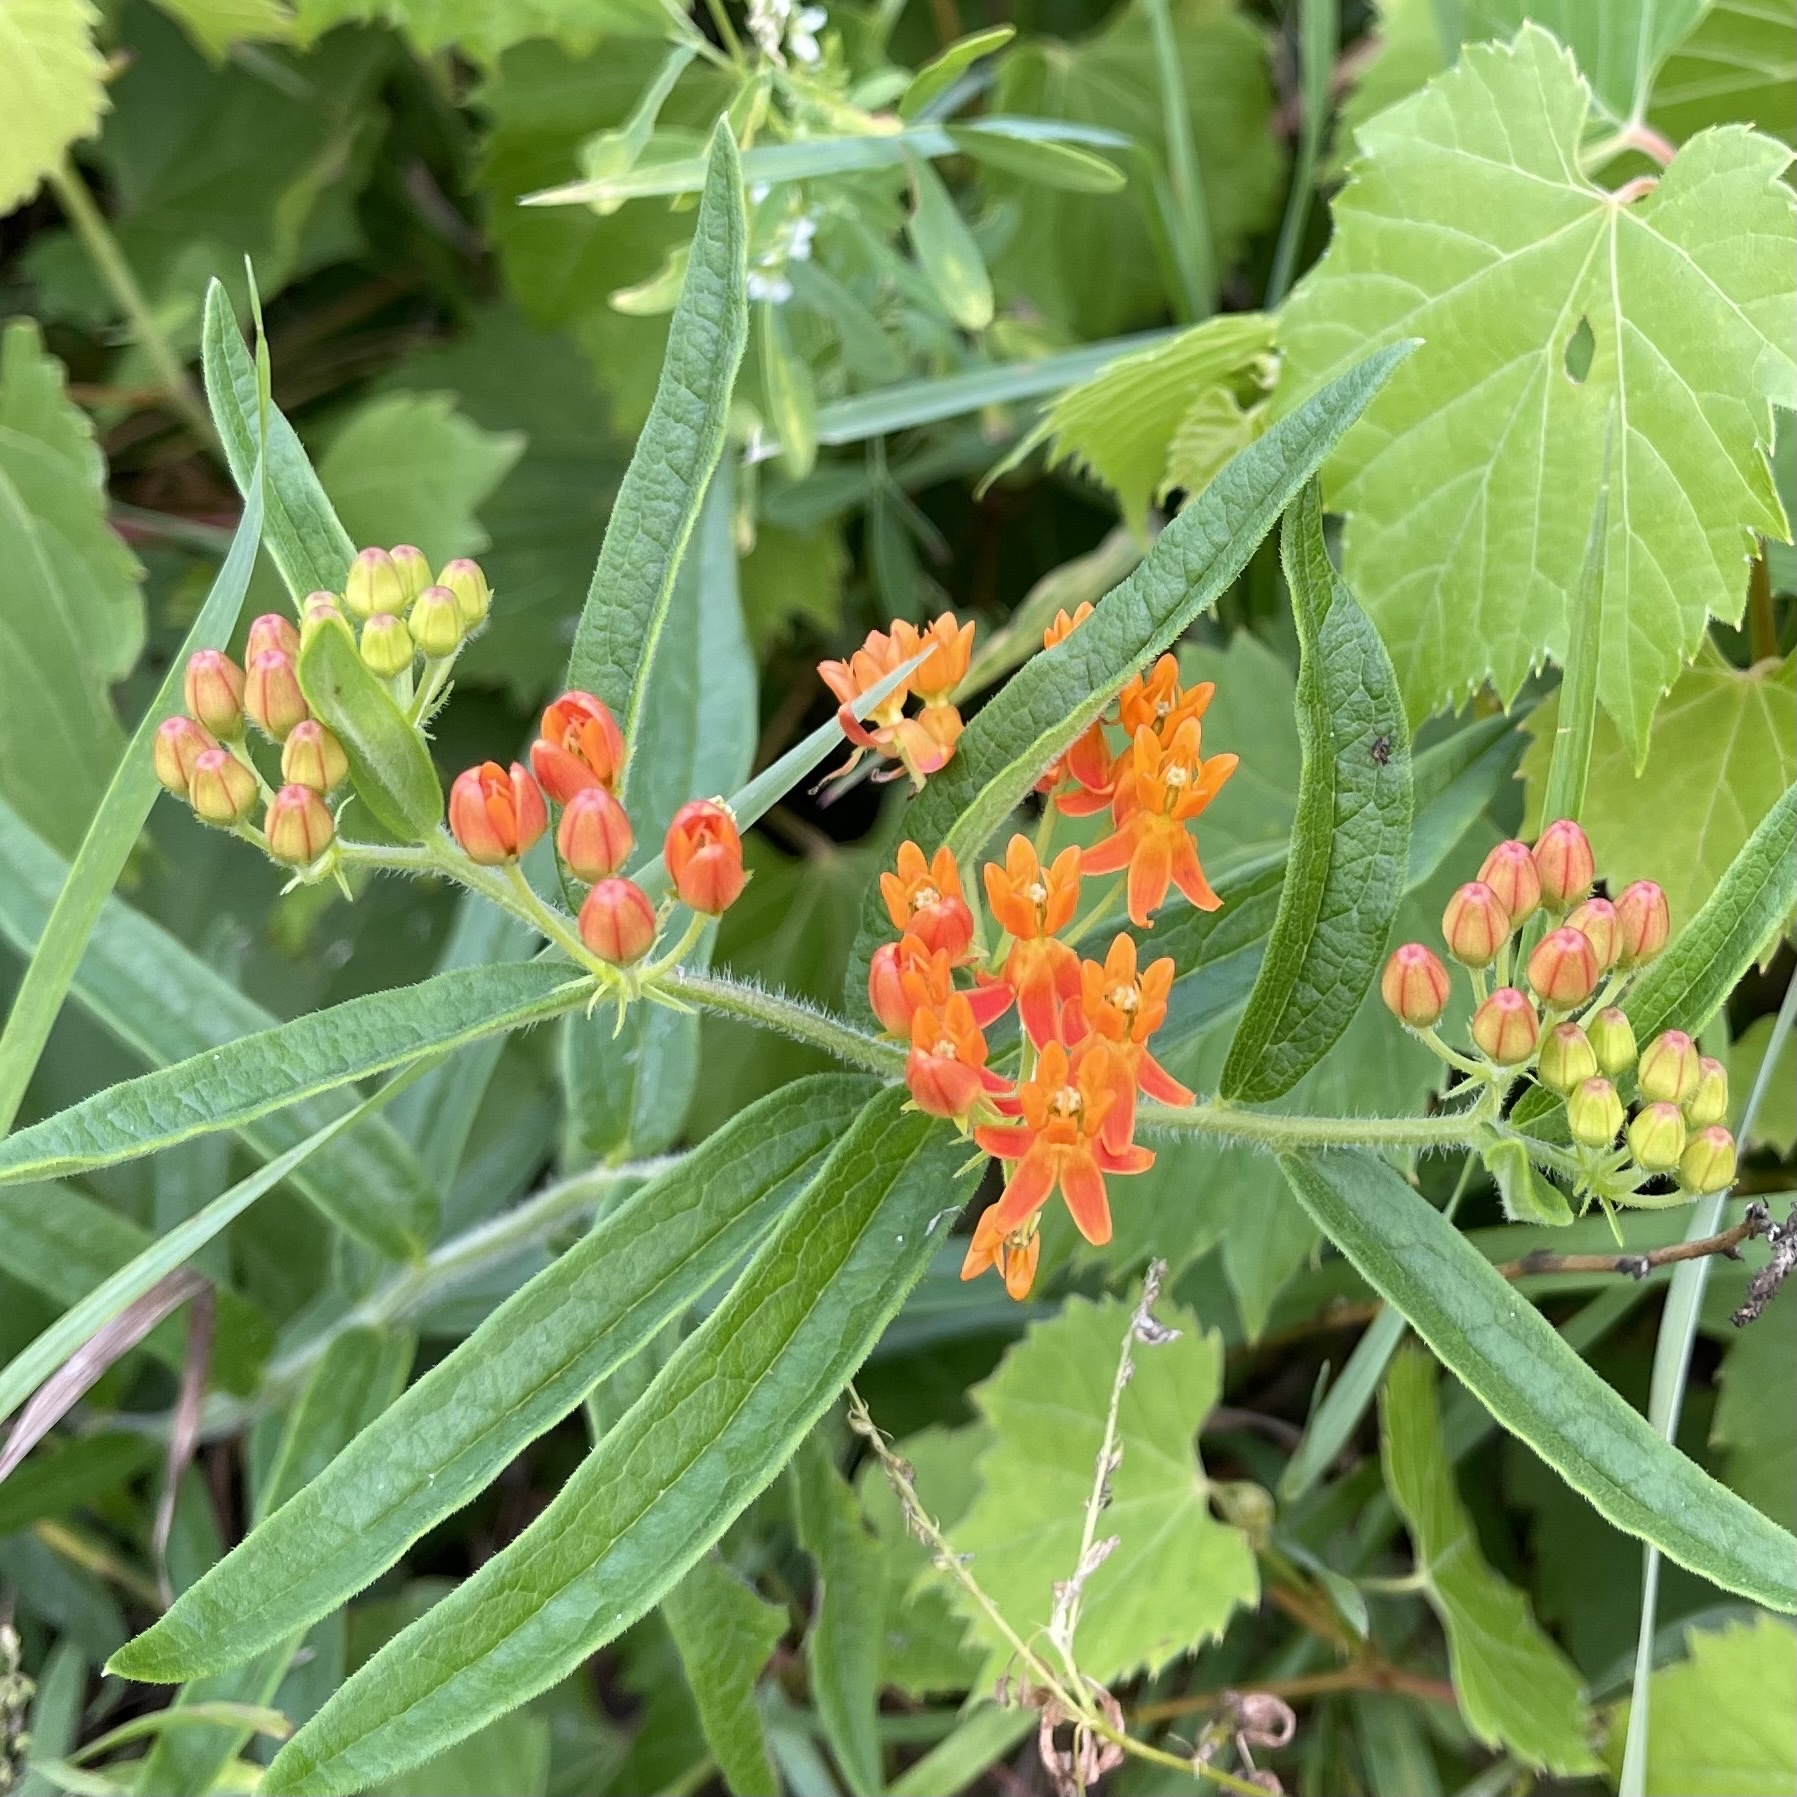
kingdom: Plantae
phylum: Tracheophyta
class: Magnoliopsida
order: Gentianales
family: Apocynaceae
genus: Asclepias
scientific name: Asclepias tuberosa
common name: Butterfly milkweed
